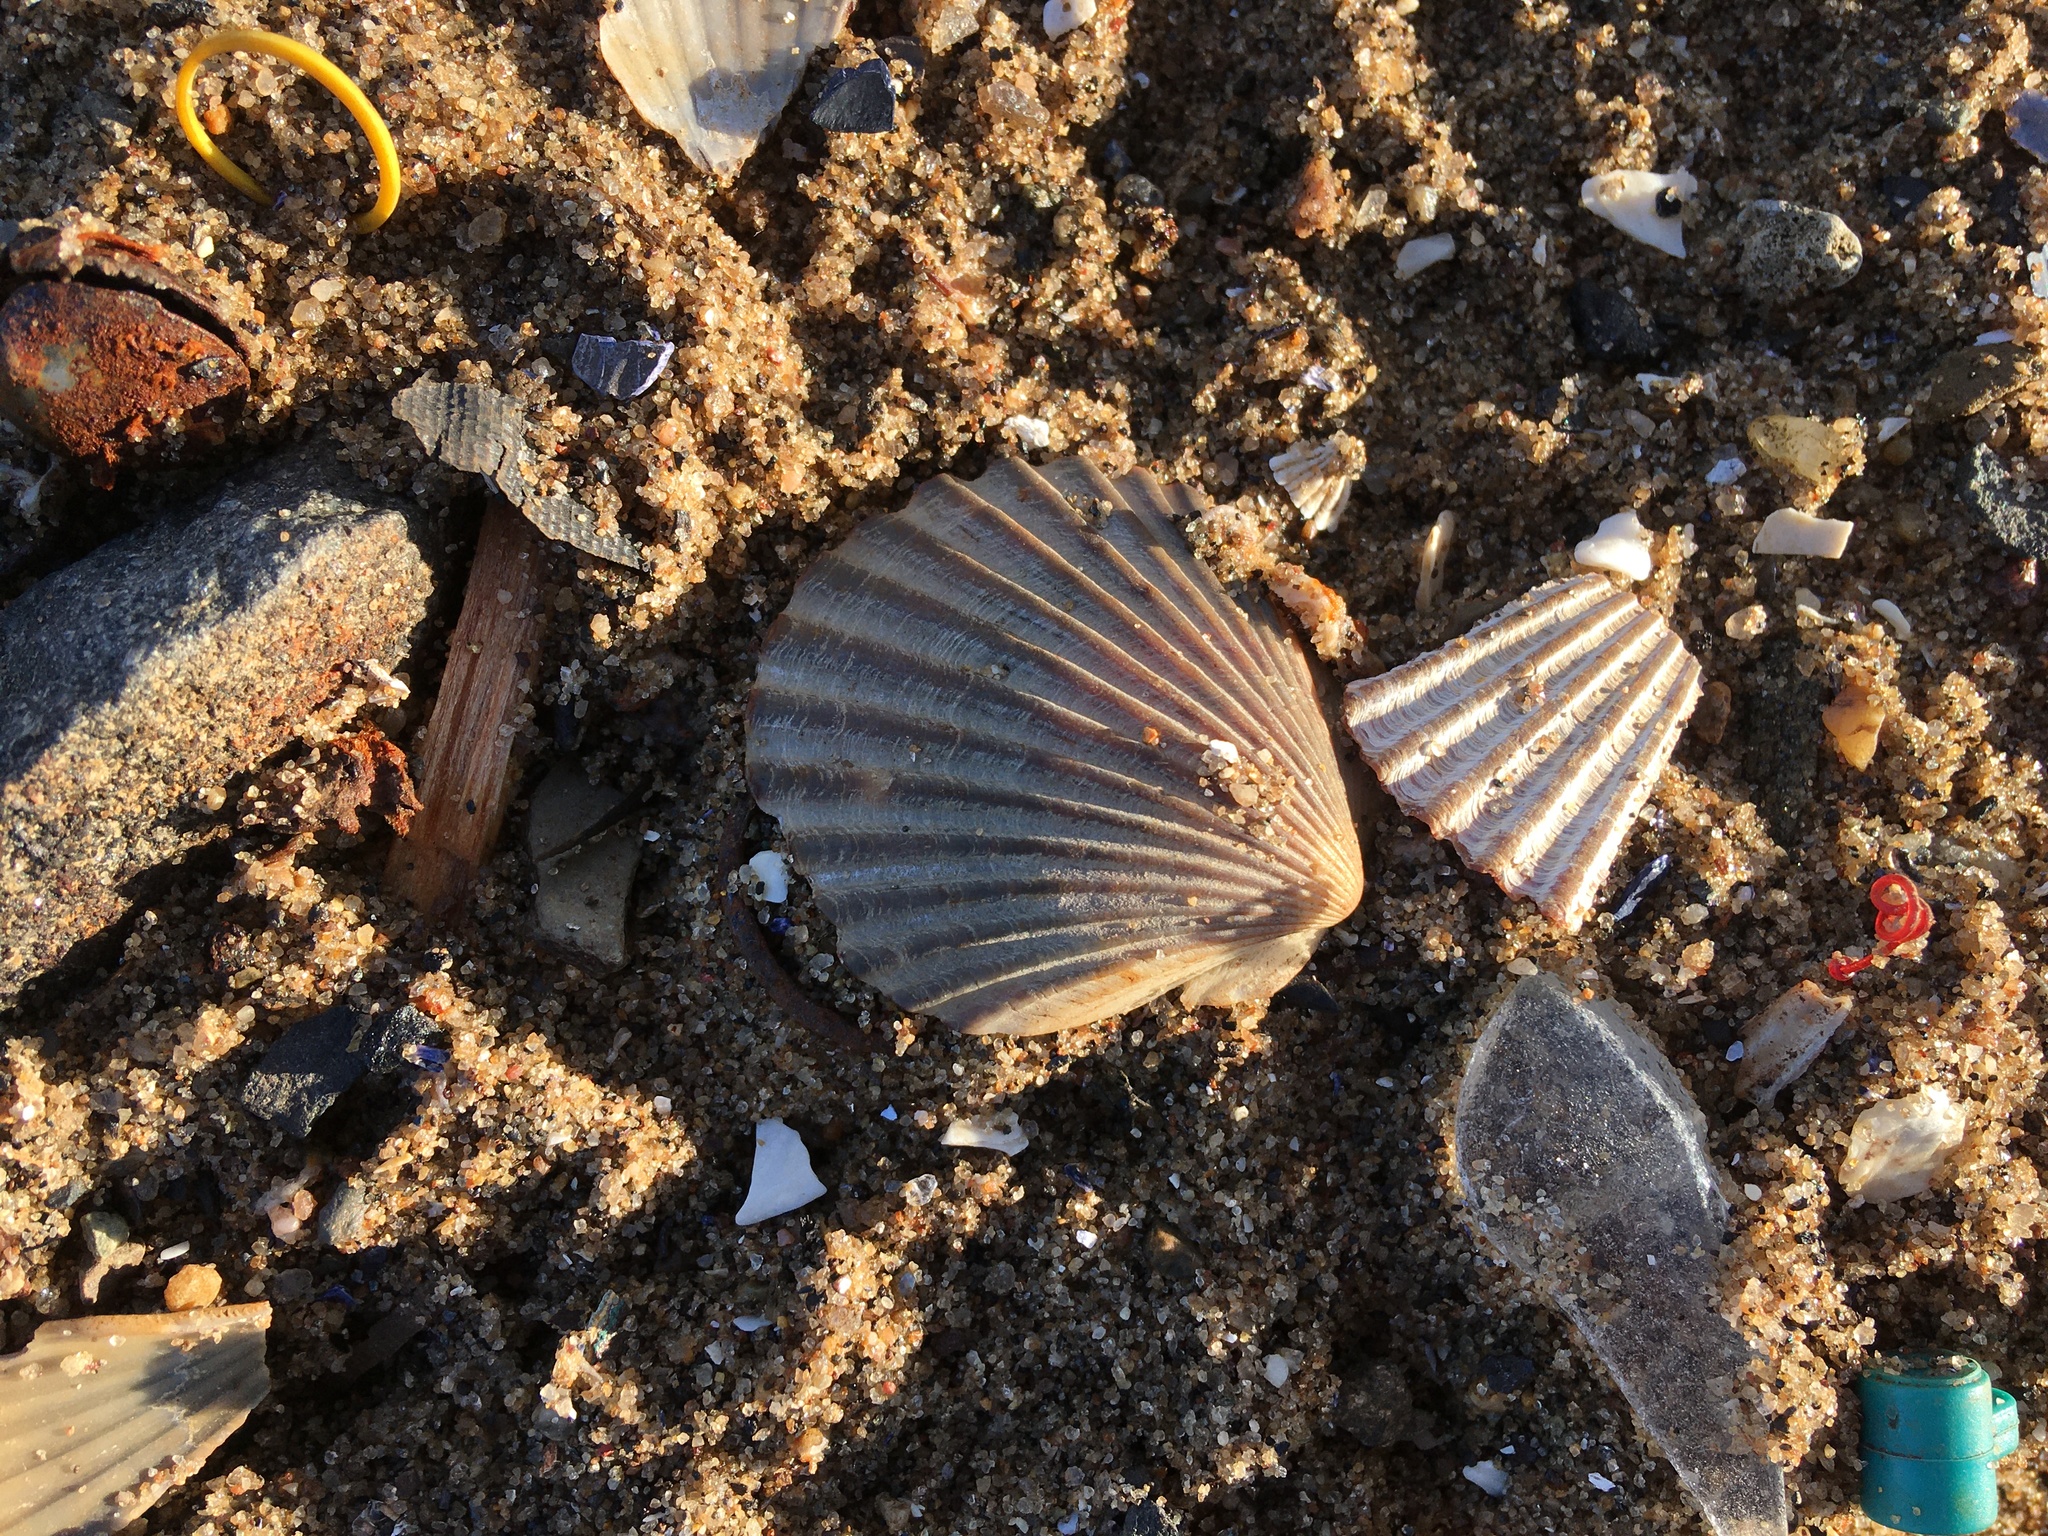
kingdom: Animalia
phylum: Mollusca
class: Bivalvia
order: Pectinida
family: Pectinidae
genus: Argopecten
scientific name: Argopecten irradians
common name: Atlantic bay scallop
